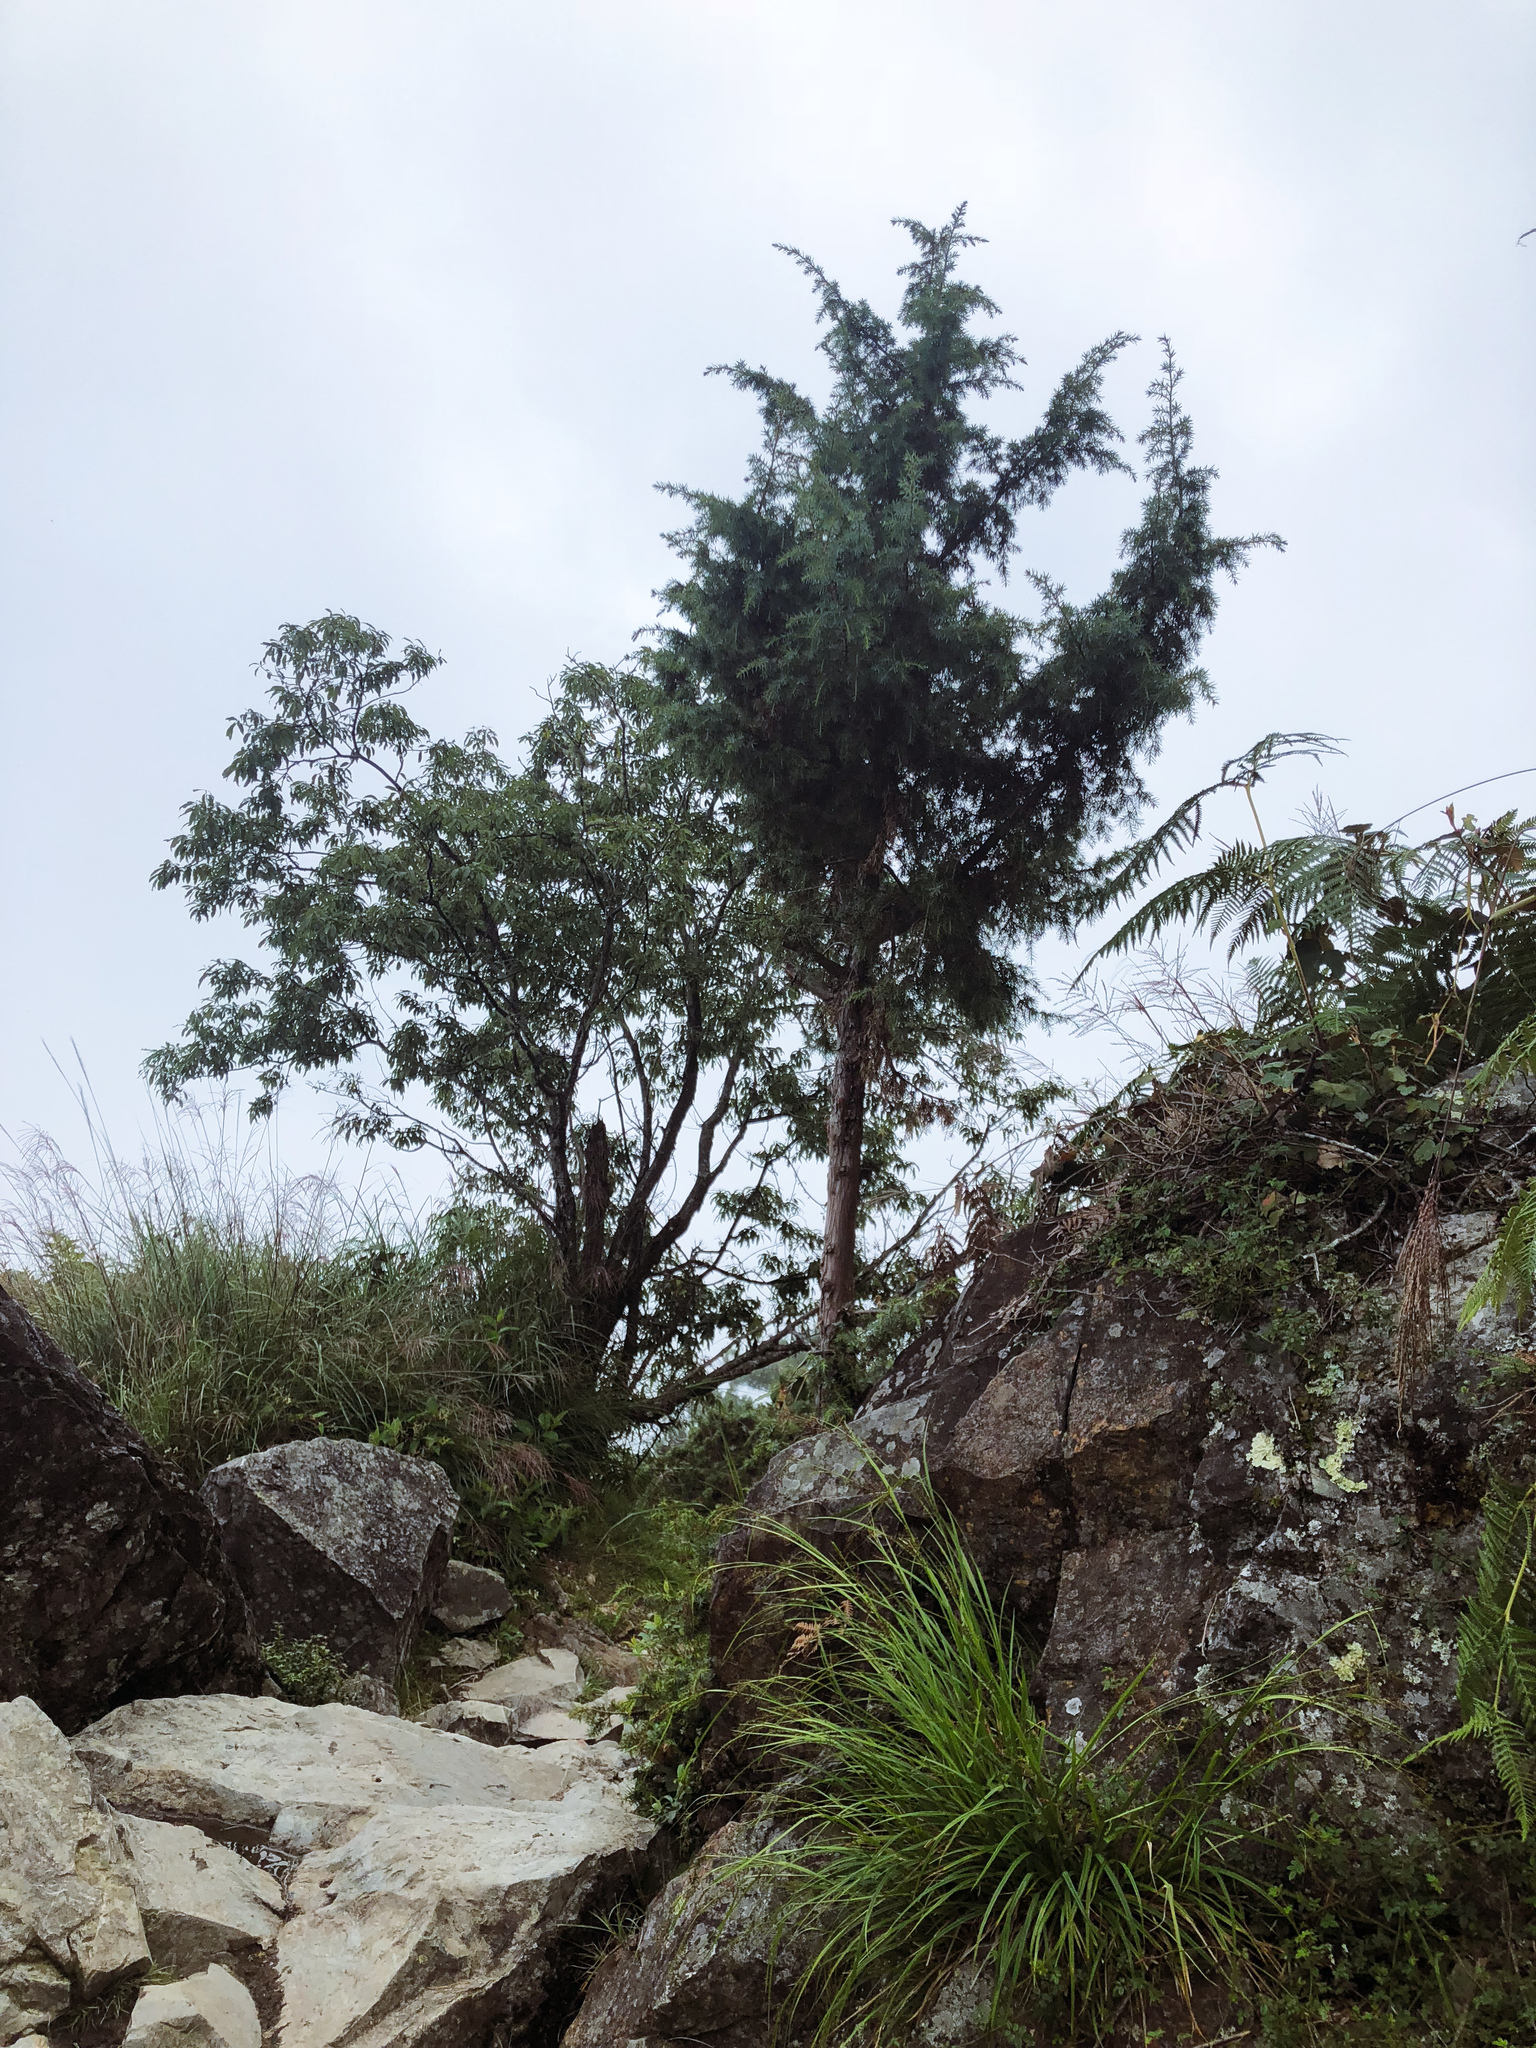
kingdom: Plantae
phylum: Tracheophyta
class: Pinopsida
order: Pinales
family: Cupressaceae
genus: Juniperus
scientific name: Juniperus formosana
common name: Formosan juniper
